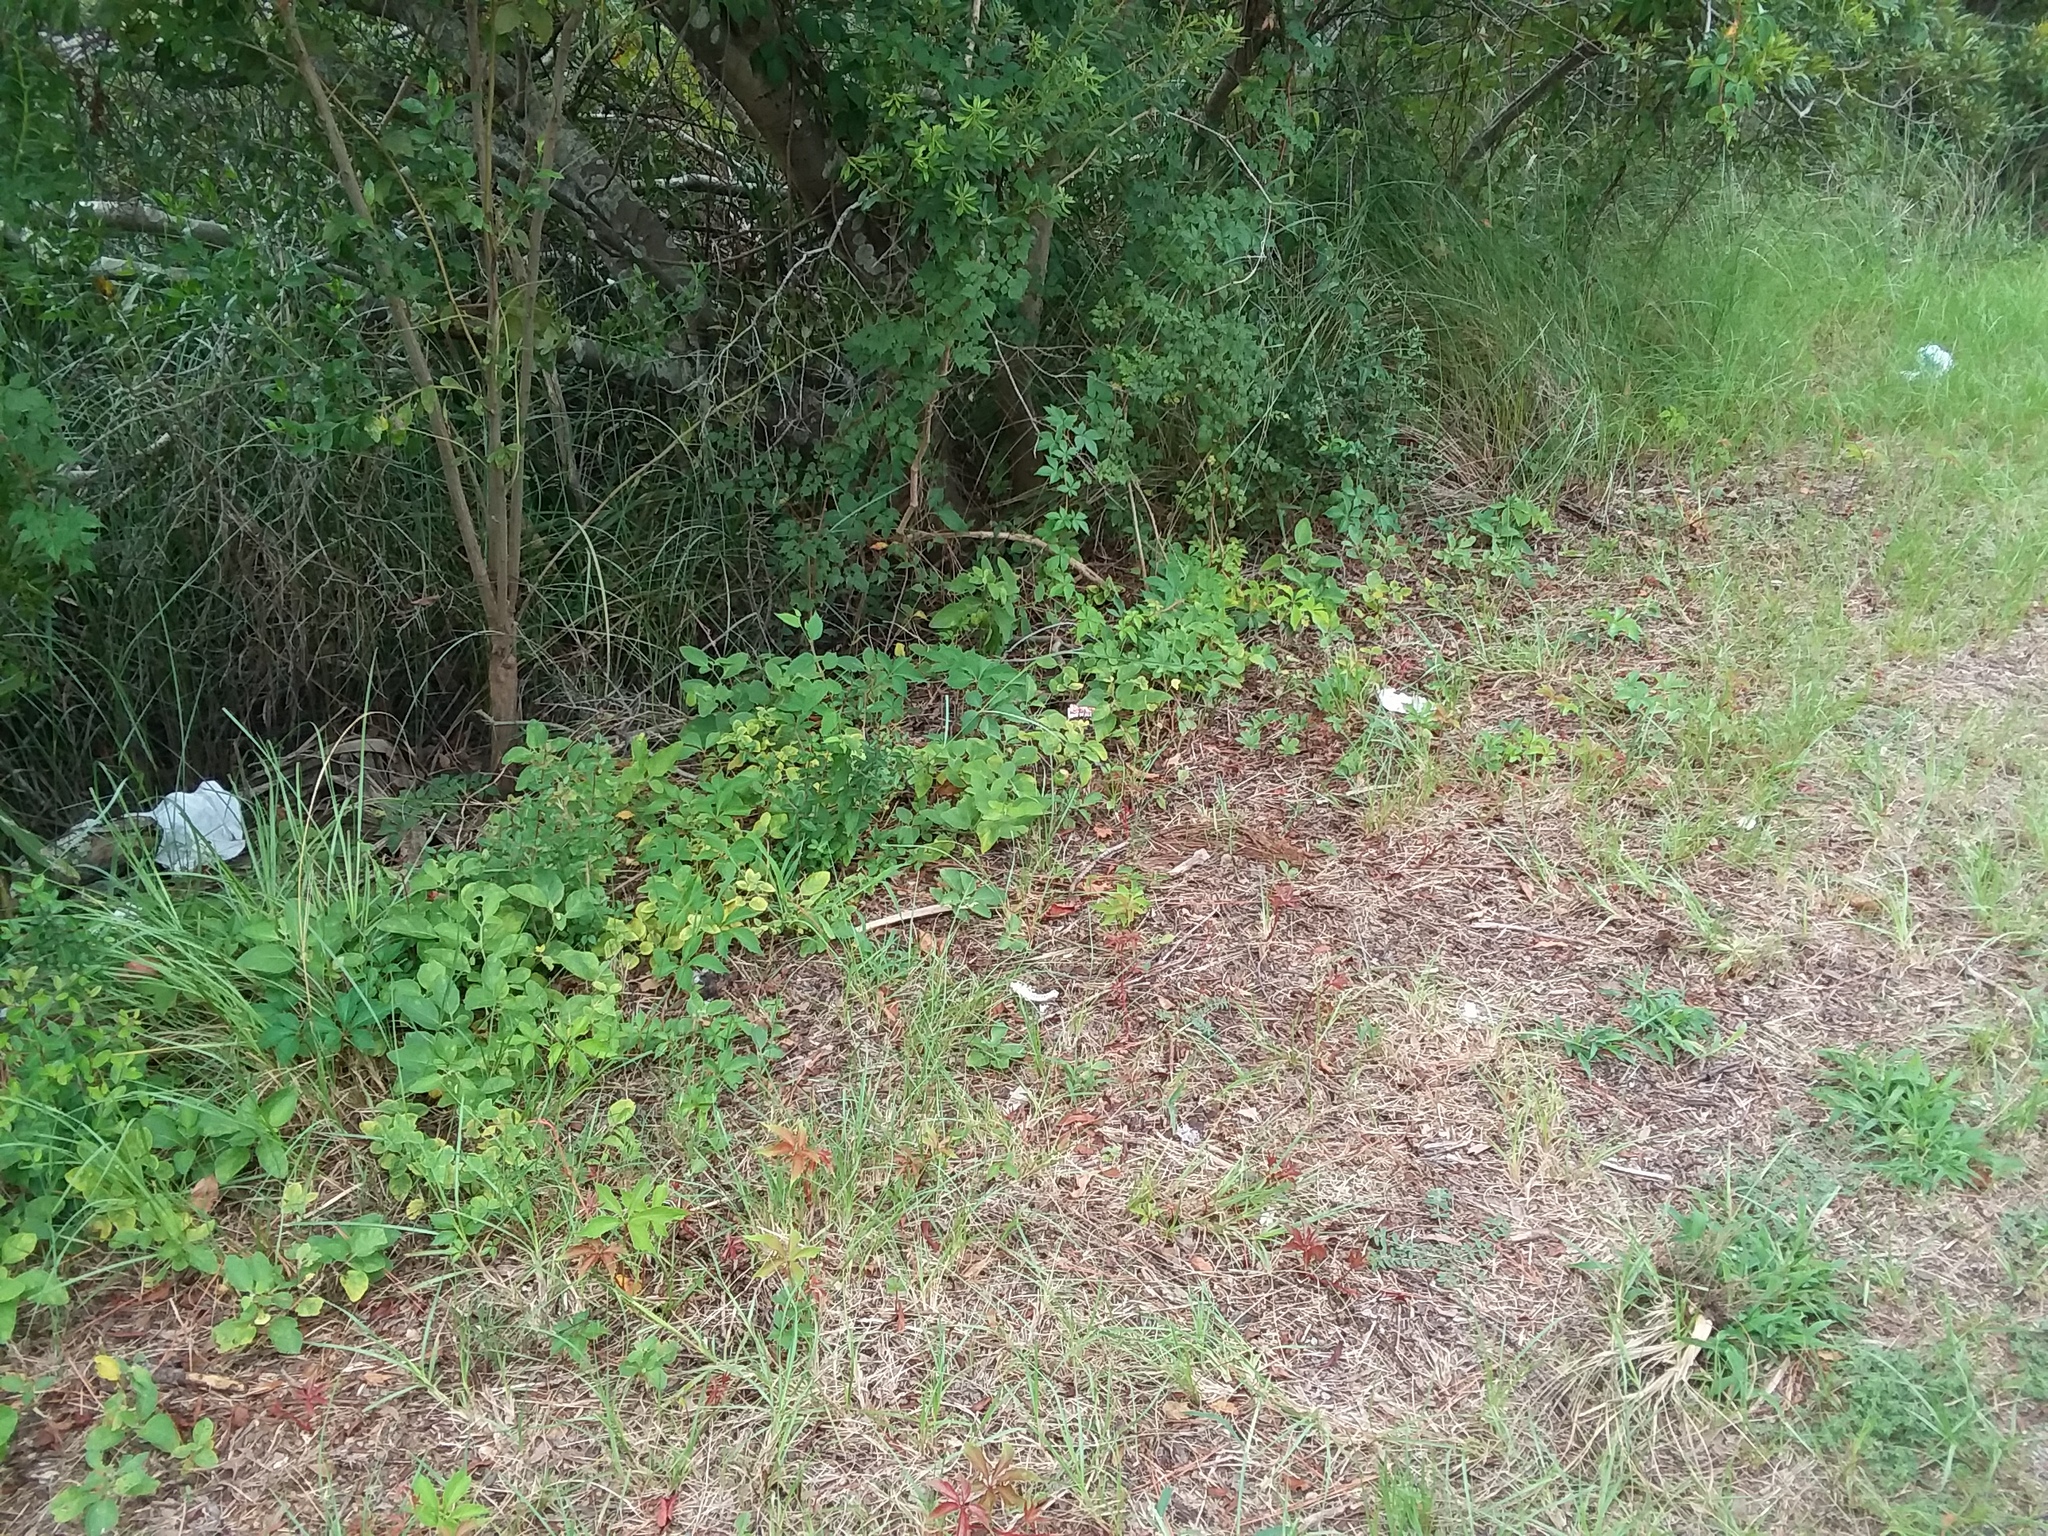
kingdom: Plantae
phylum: Tracheophyta
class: Magnoliopsida
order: Fagales
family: Myricaceae
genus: Morella
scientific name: Morella cerifera
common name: Wax myrtle
